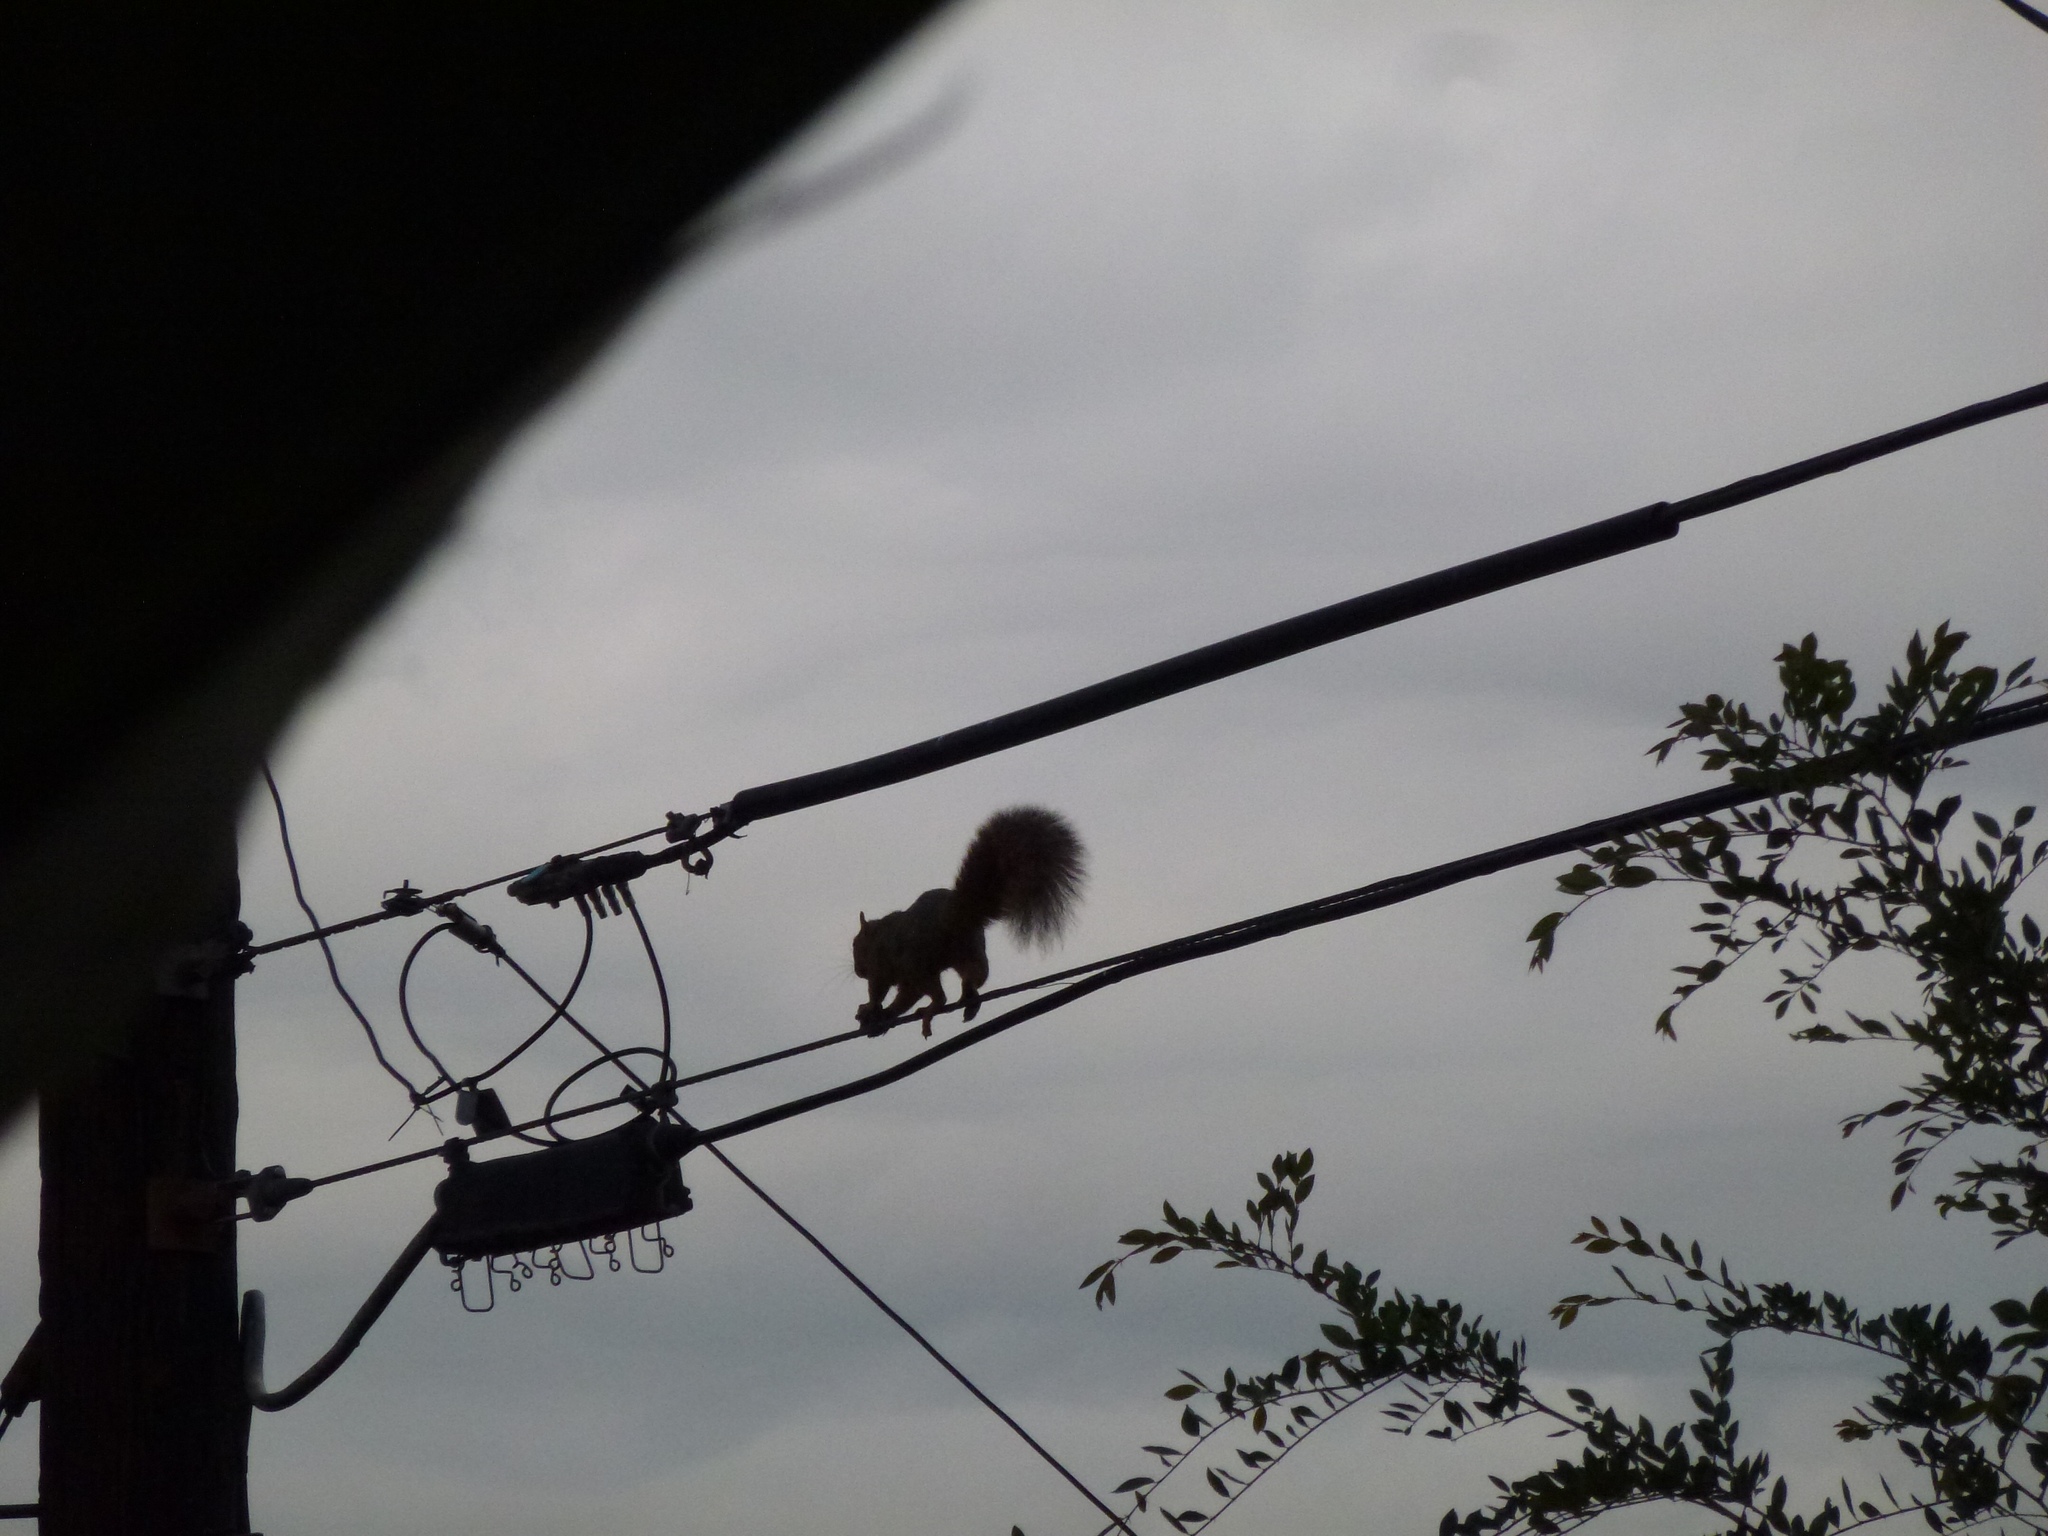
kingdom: Animalia
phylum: Chordata
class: Mammalia
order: Rodentia
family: Sciuridae
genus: Sciurus
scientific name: Sciurus niger
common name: Fox squirrel
